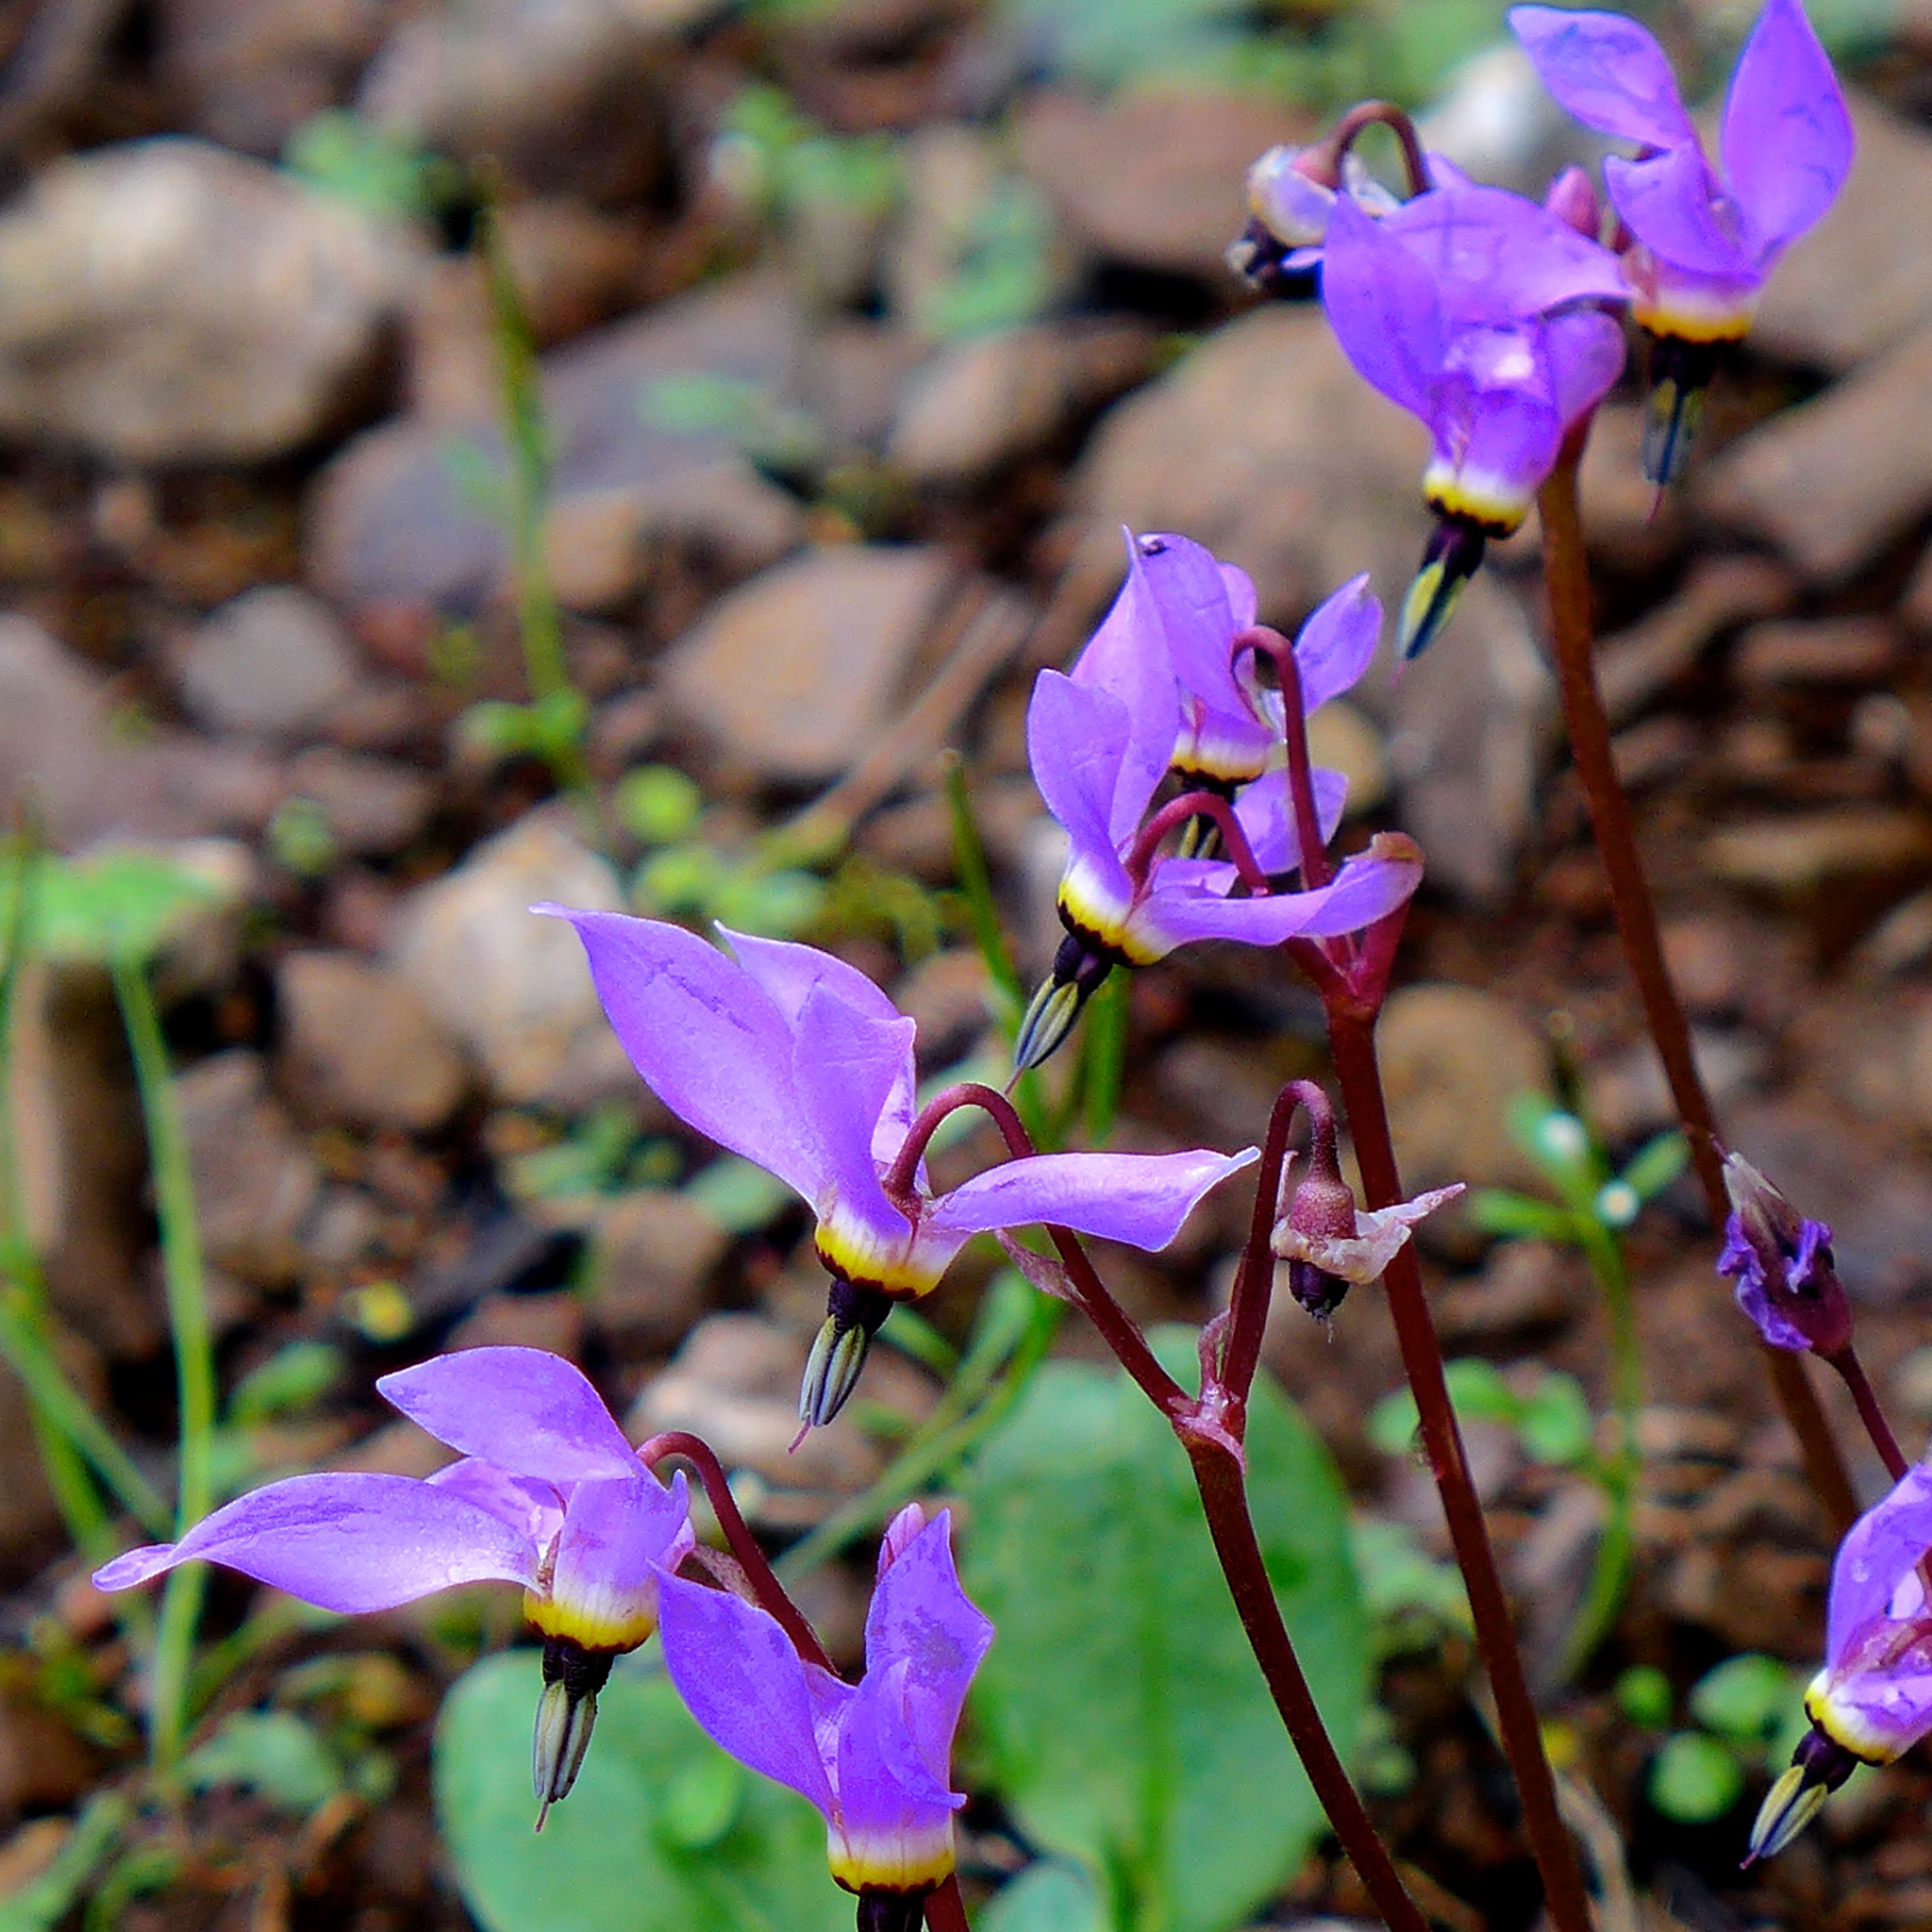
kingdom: Plantae
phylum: Tracheophyta
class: Magnoliopsida
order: Ericales
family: Primulaceae
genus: Dodecatheon
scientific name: Dodecatheon hendersonii
